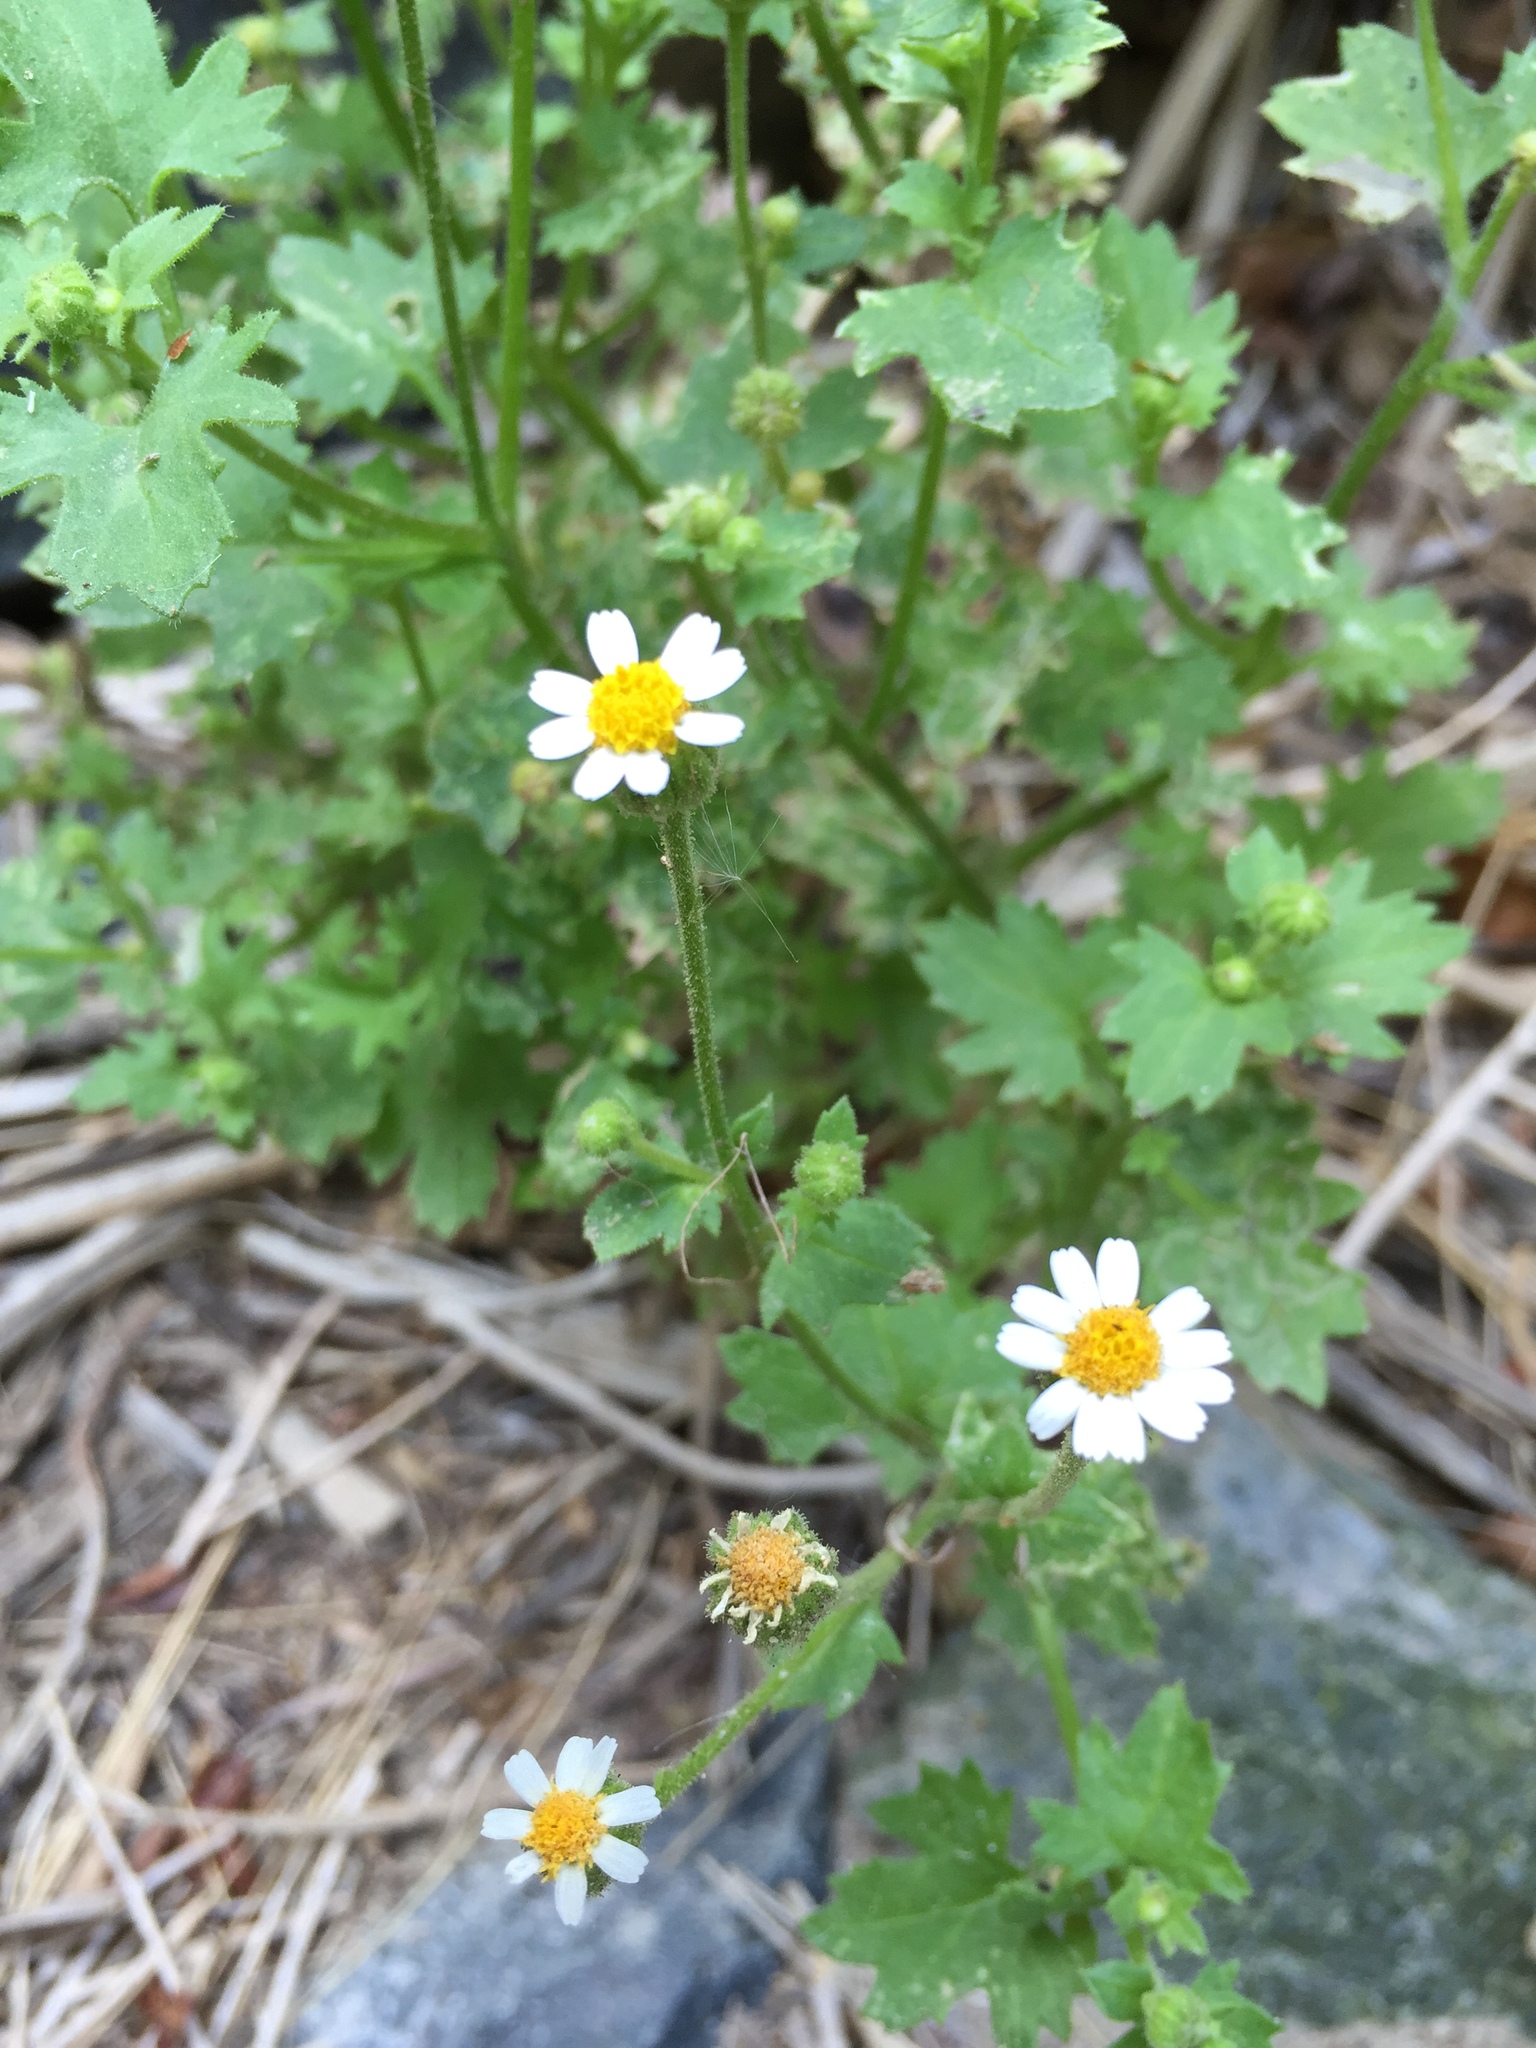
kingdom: Plantae
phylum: Tracheophyta
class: Magnoliopsida
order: Asterales
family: Asteraceae
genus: Laphamia
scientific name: Laphamia emoryi
